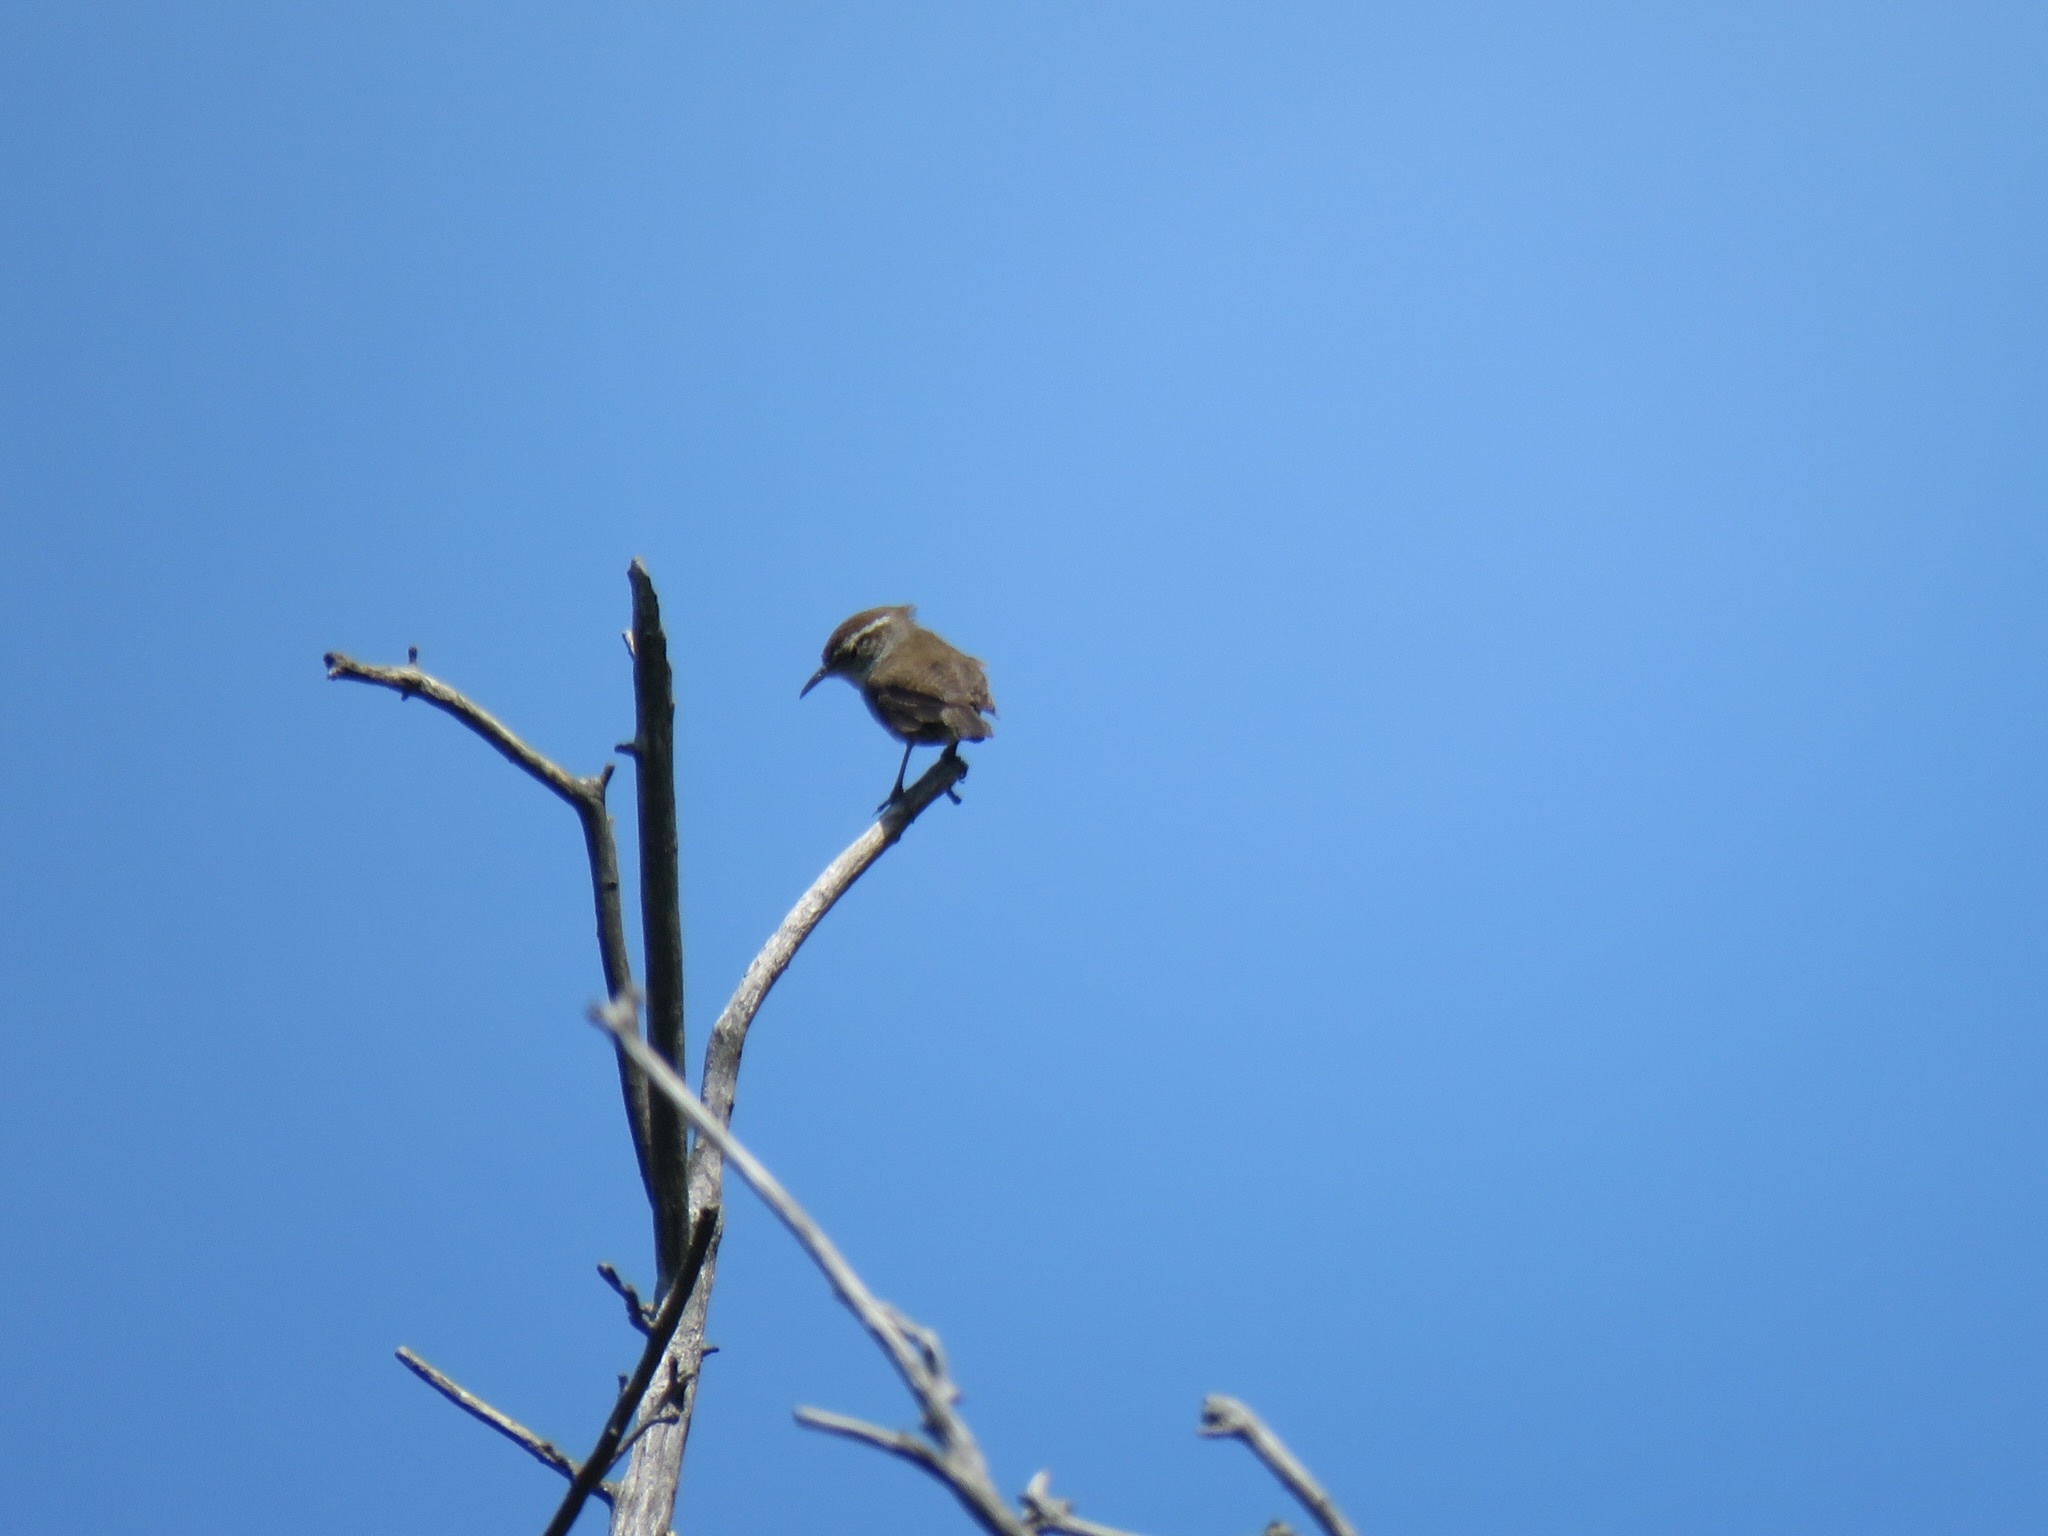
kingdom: Animalia
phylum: Chordata
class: Aves
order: Passeriformes
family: Troglodytidae
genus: Thryomanes
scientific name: Thryomanes bewickii
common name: Bewick's wren
